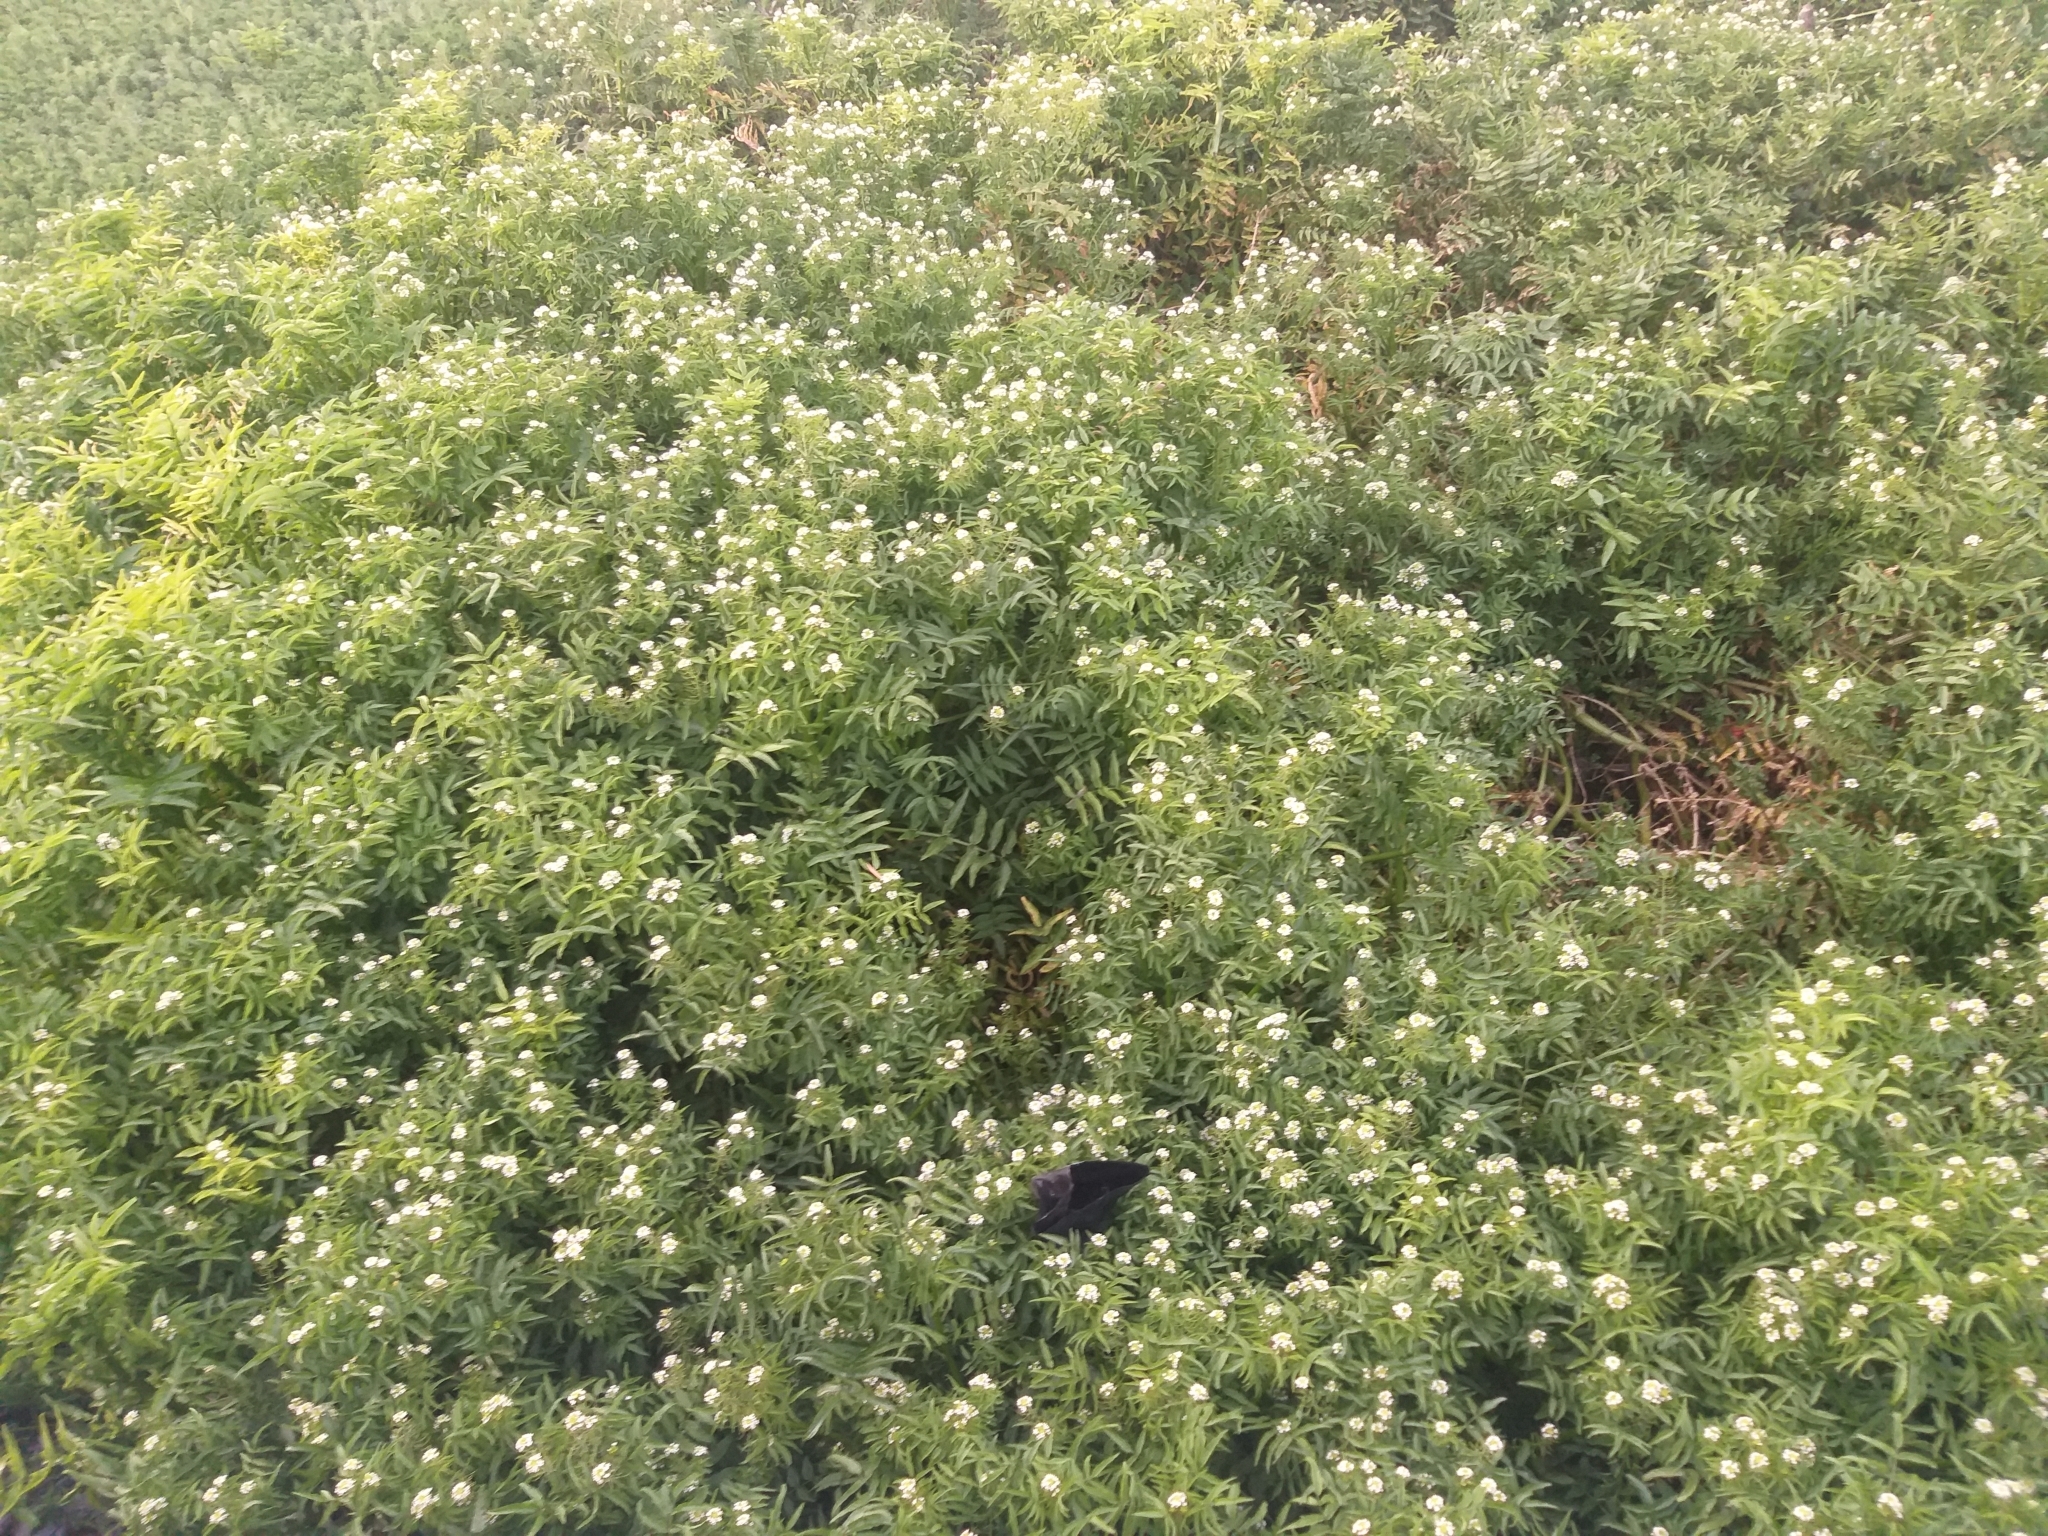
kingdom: Plantae
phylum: Tracheophyta
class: Magnoliopsida
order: Brassicales
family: Brassicaceae
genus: Nasturtium
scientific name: Nasturtium officinale
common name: Watercress
